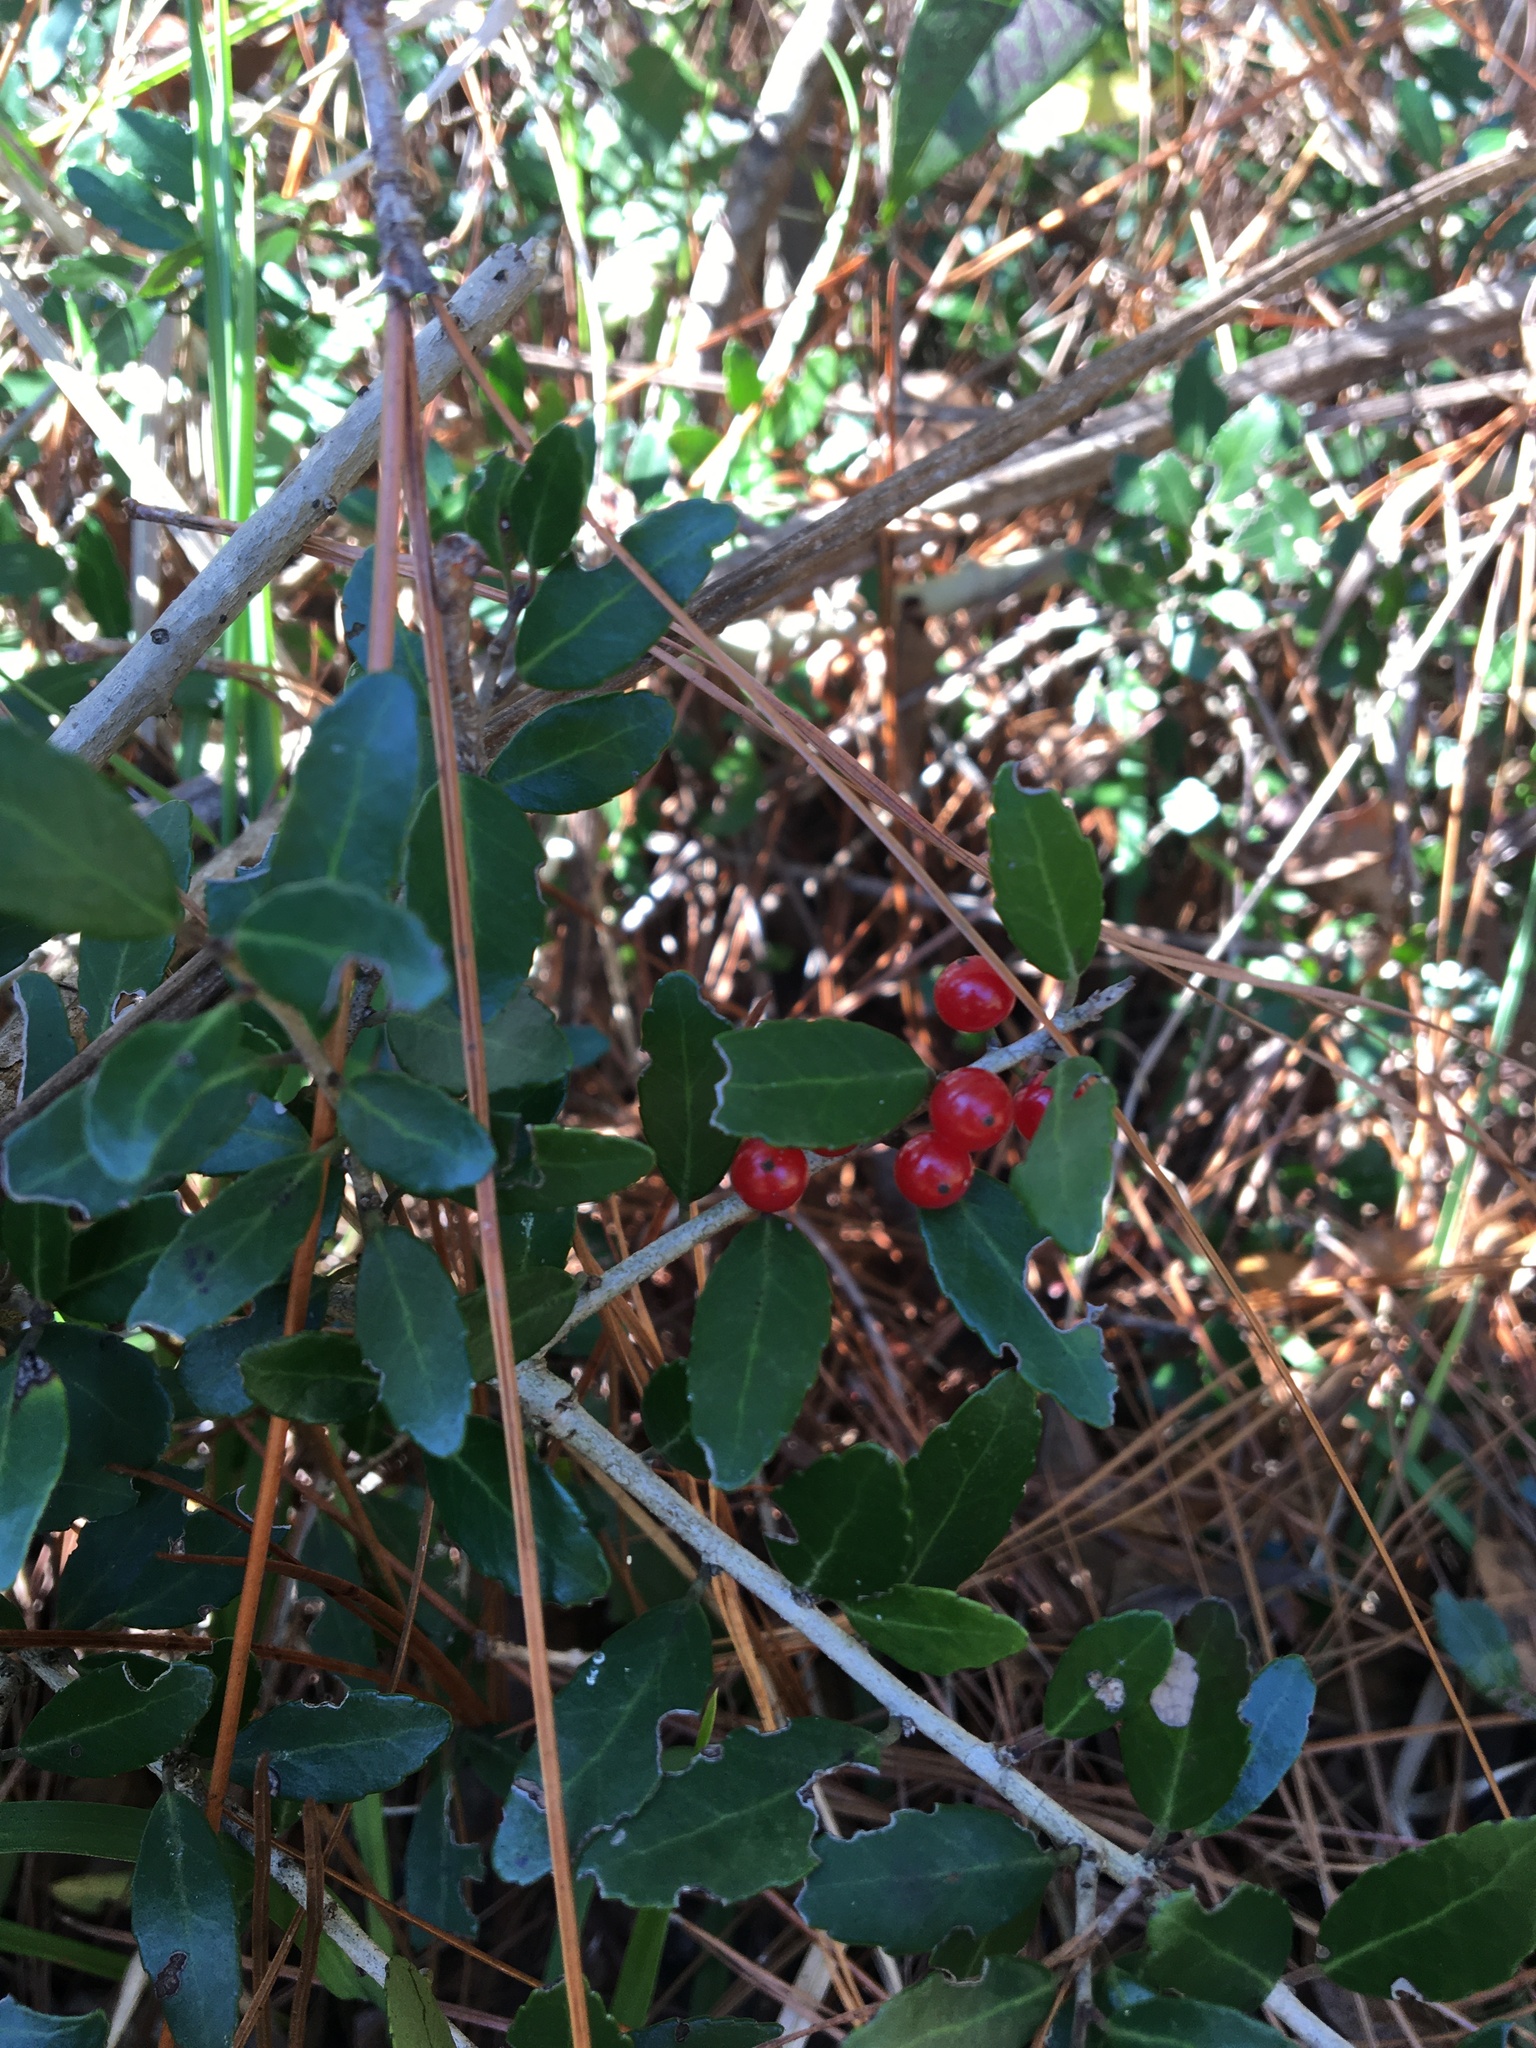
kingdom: Plantae
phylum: Tracheophyta
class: Magnoliopsida
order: Aquifoliales
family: Aquifoliaceae
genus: Ilex
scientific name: Ilex vomitoria
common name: Yaupon holly
